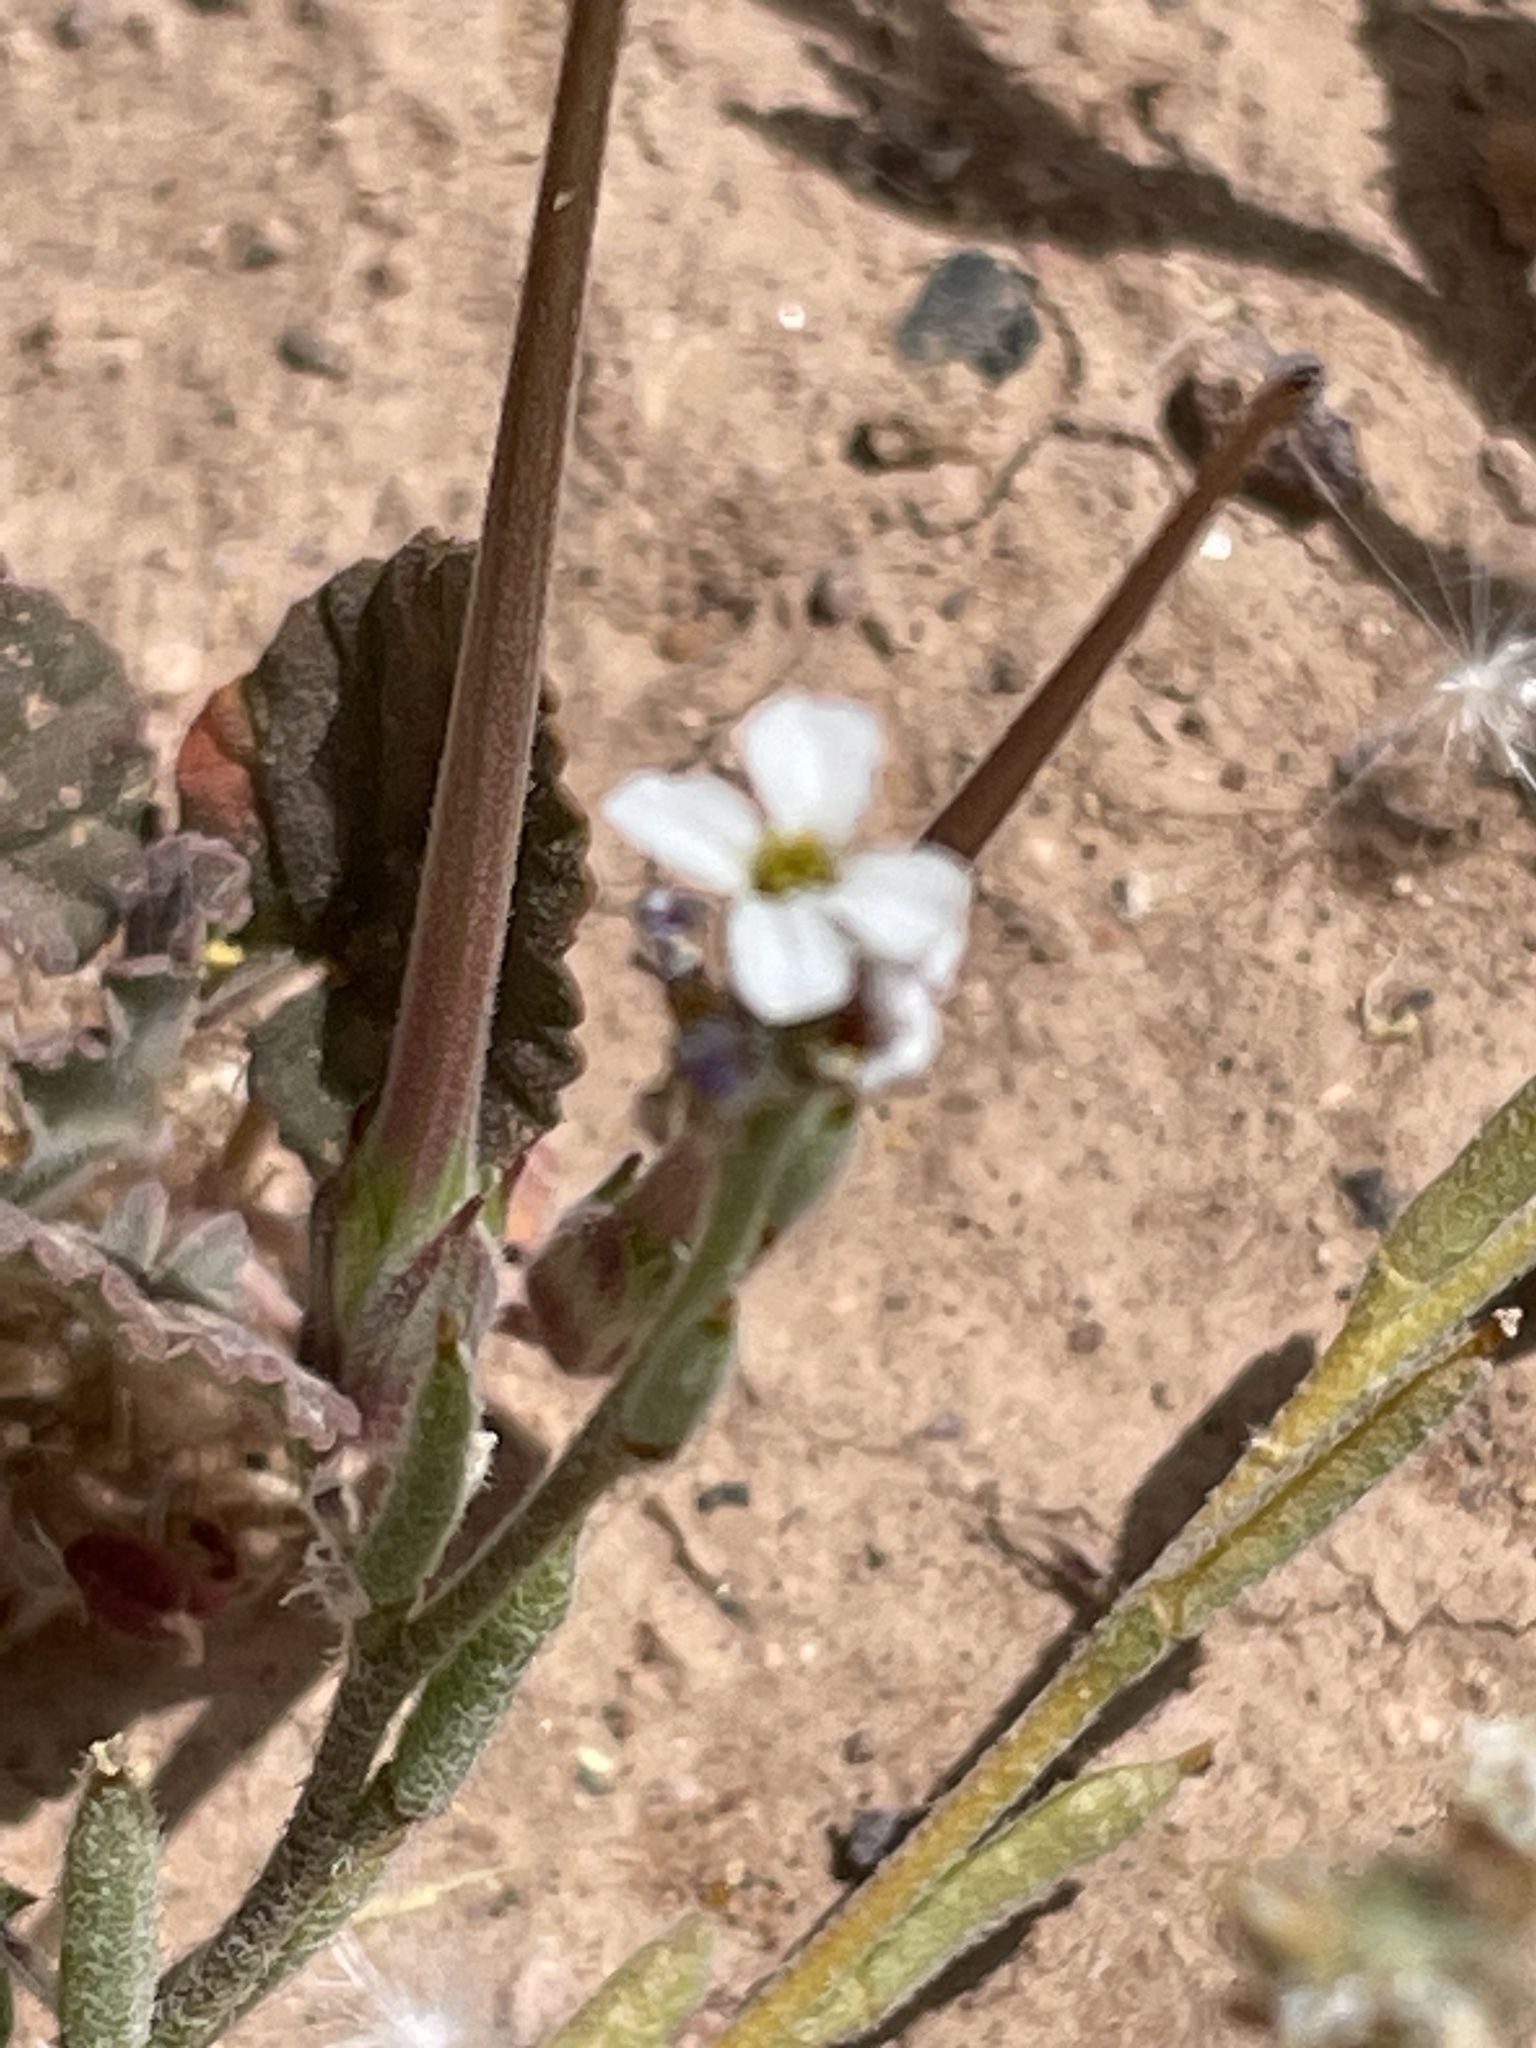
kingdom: Plantae
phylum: Tracheophyta
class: Magnoliopsida
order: Brassicales
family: Brassicaceae
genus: Morettia
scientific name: Morettia canescens
